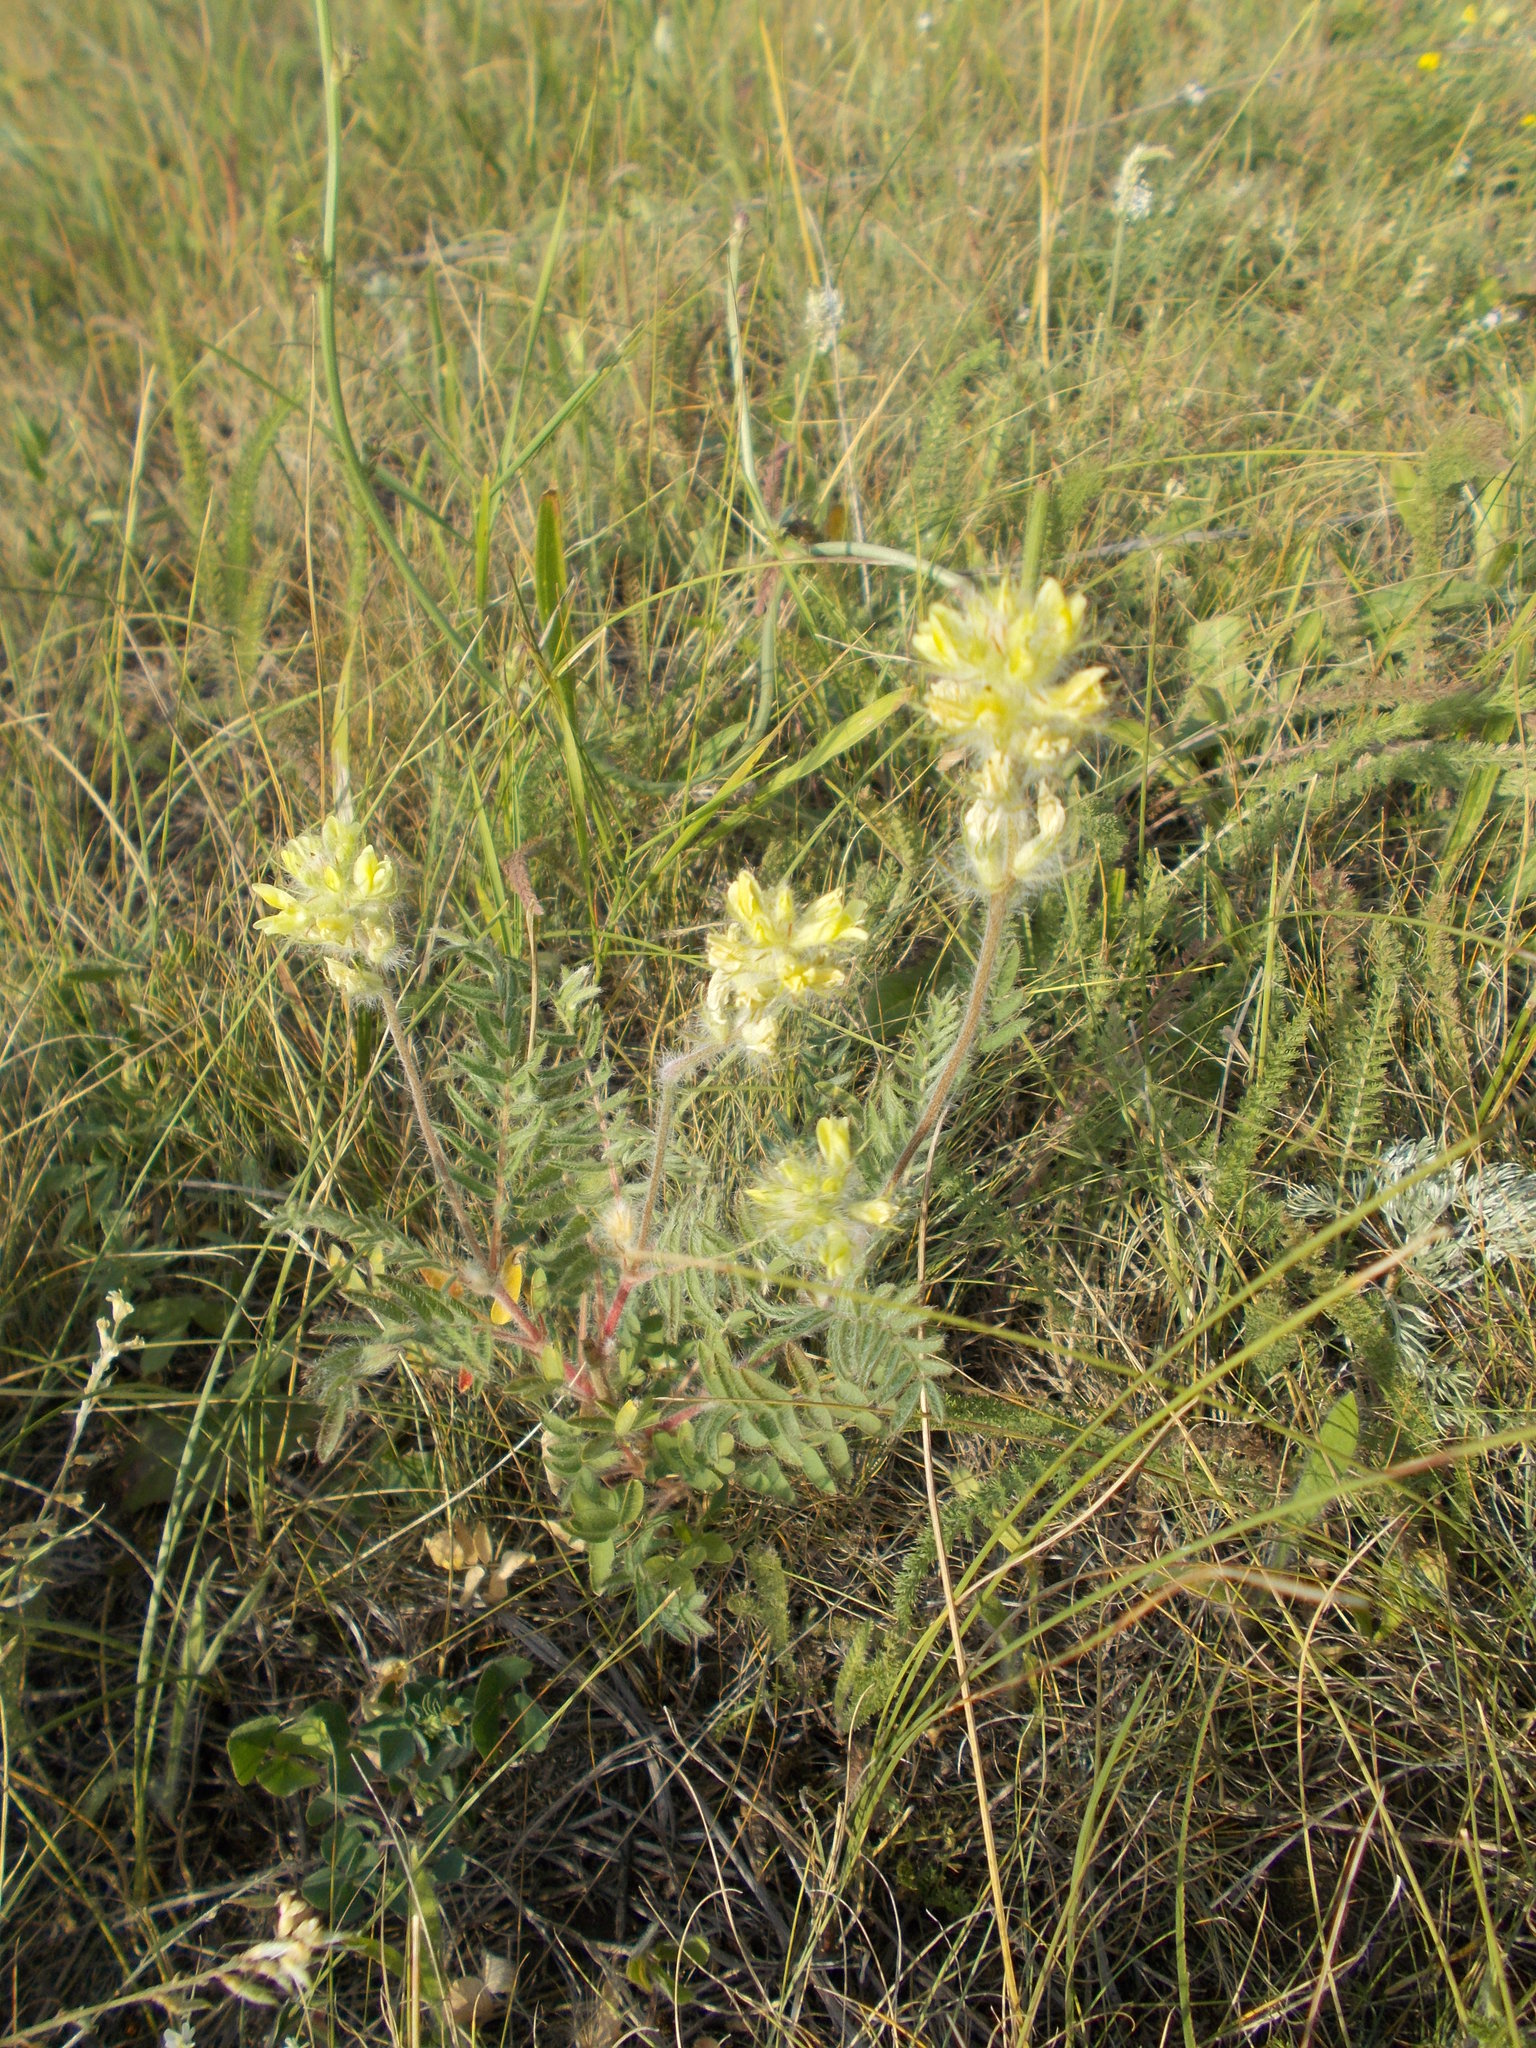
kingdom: Plantae
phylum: Tracheophyta
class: Magnoliopsida
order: Fabales
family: Fabaceae
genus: Oxytropis
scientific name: Oxytropis pilosa
